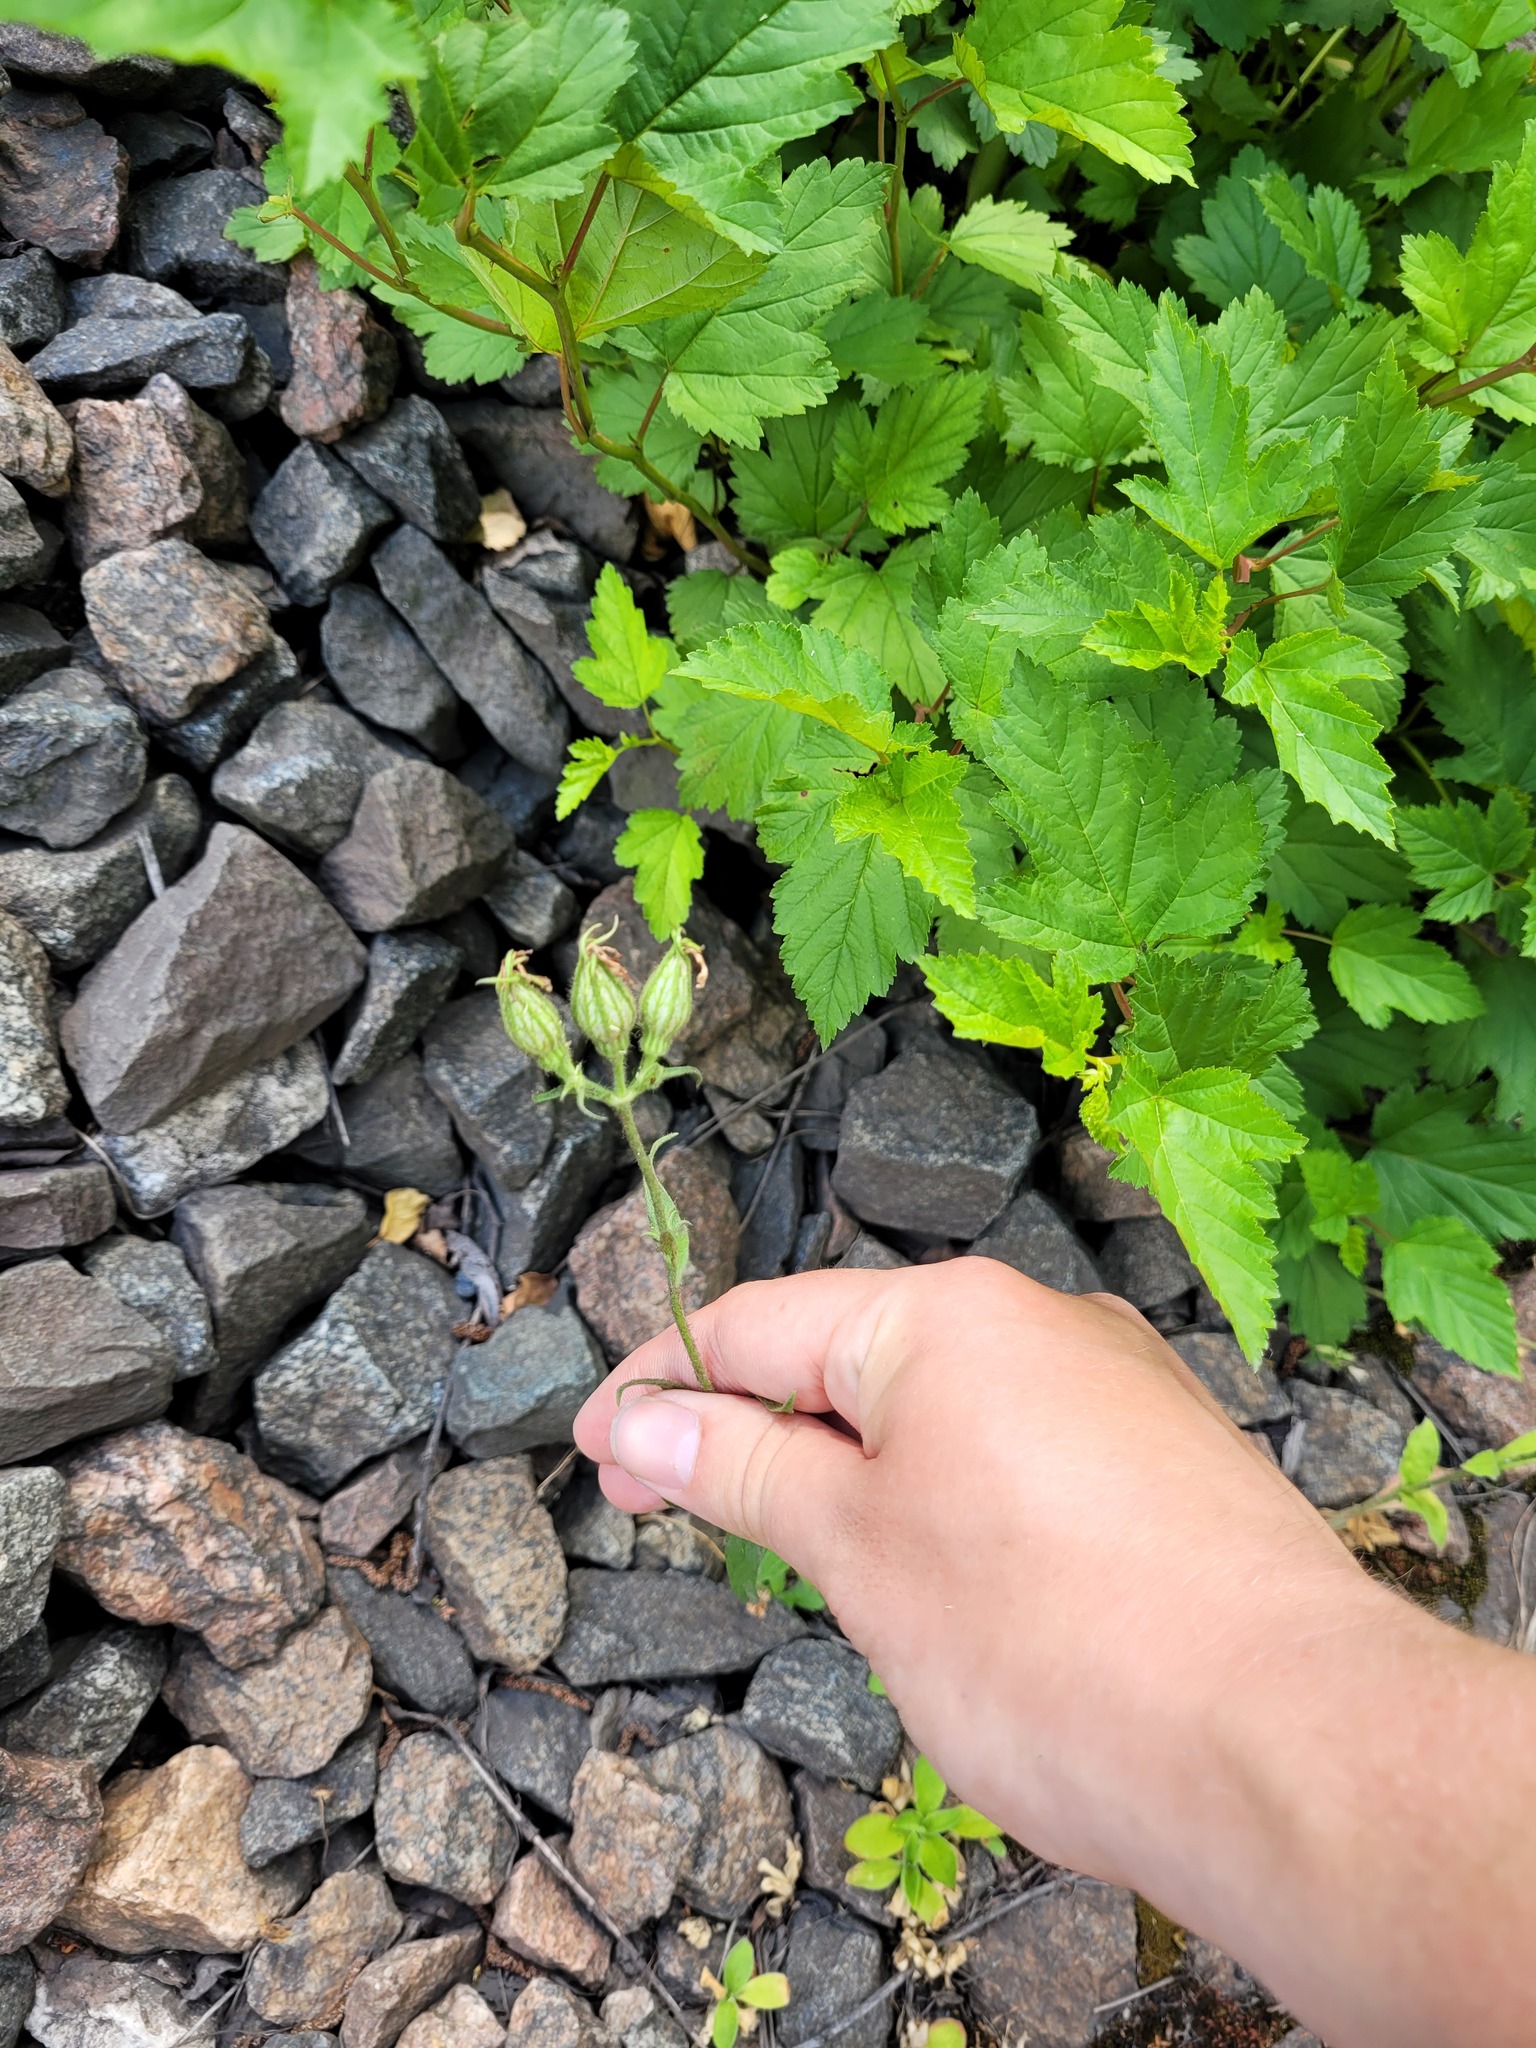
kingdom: Plantae
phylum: Tracheophyta
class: Magnoliopsida
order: Caryophyllales
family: Caryophyllaceae
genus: Silene
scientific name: Silene noctiflora
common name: Night-flowering catchfly
